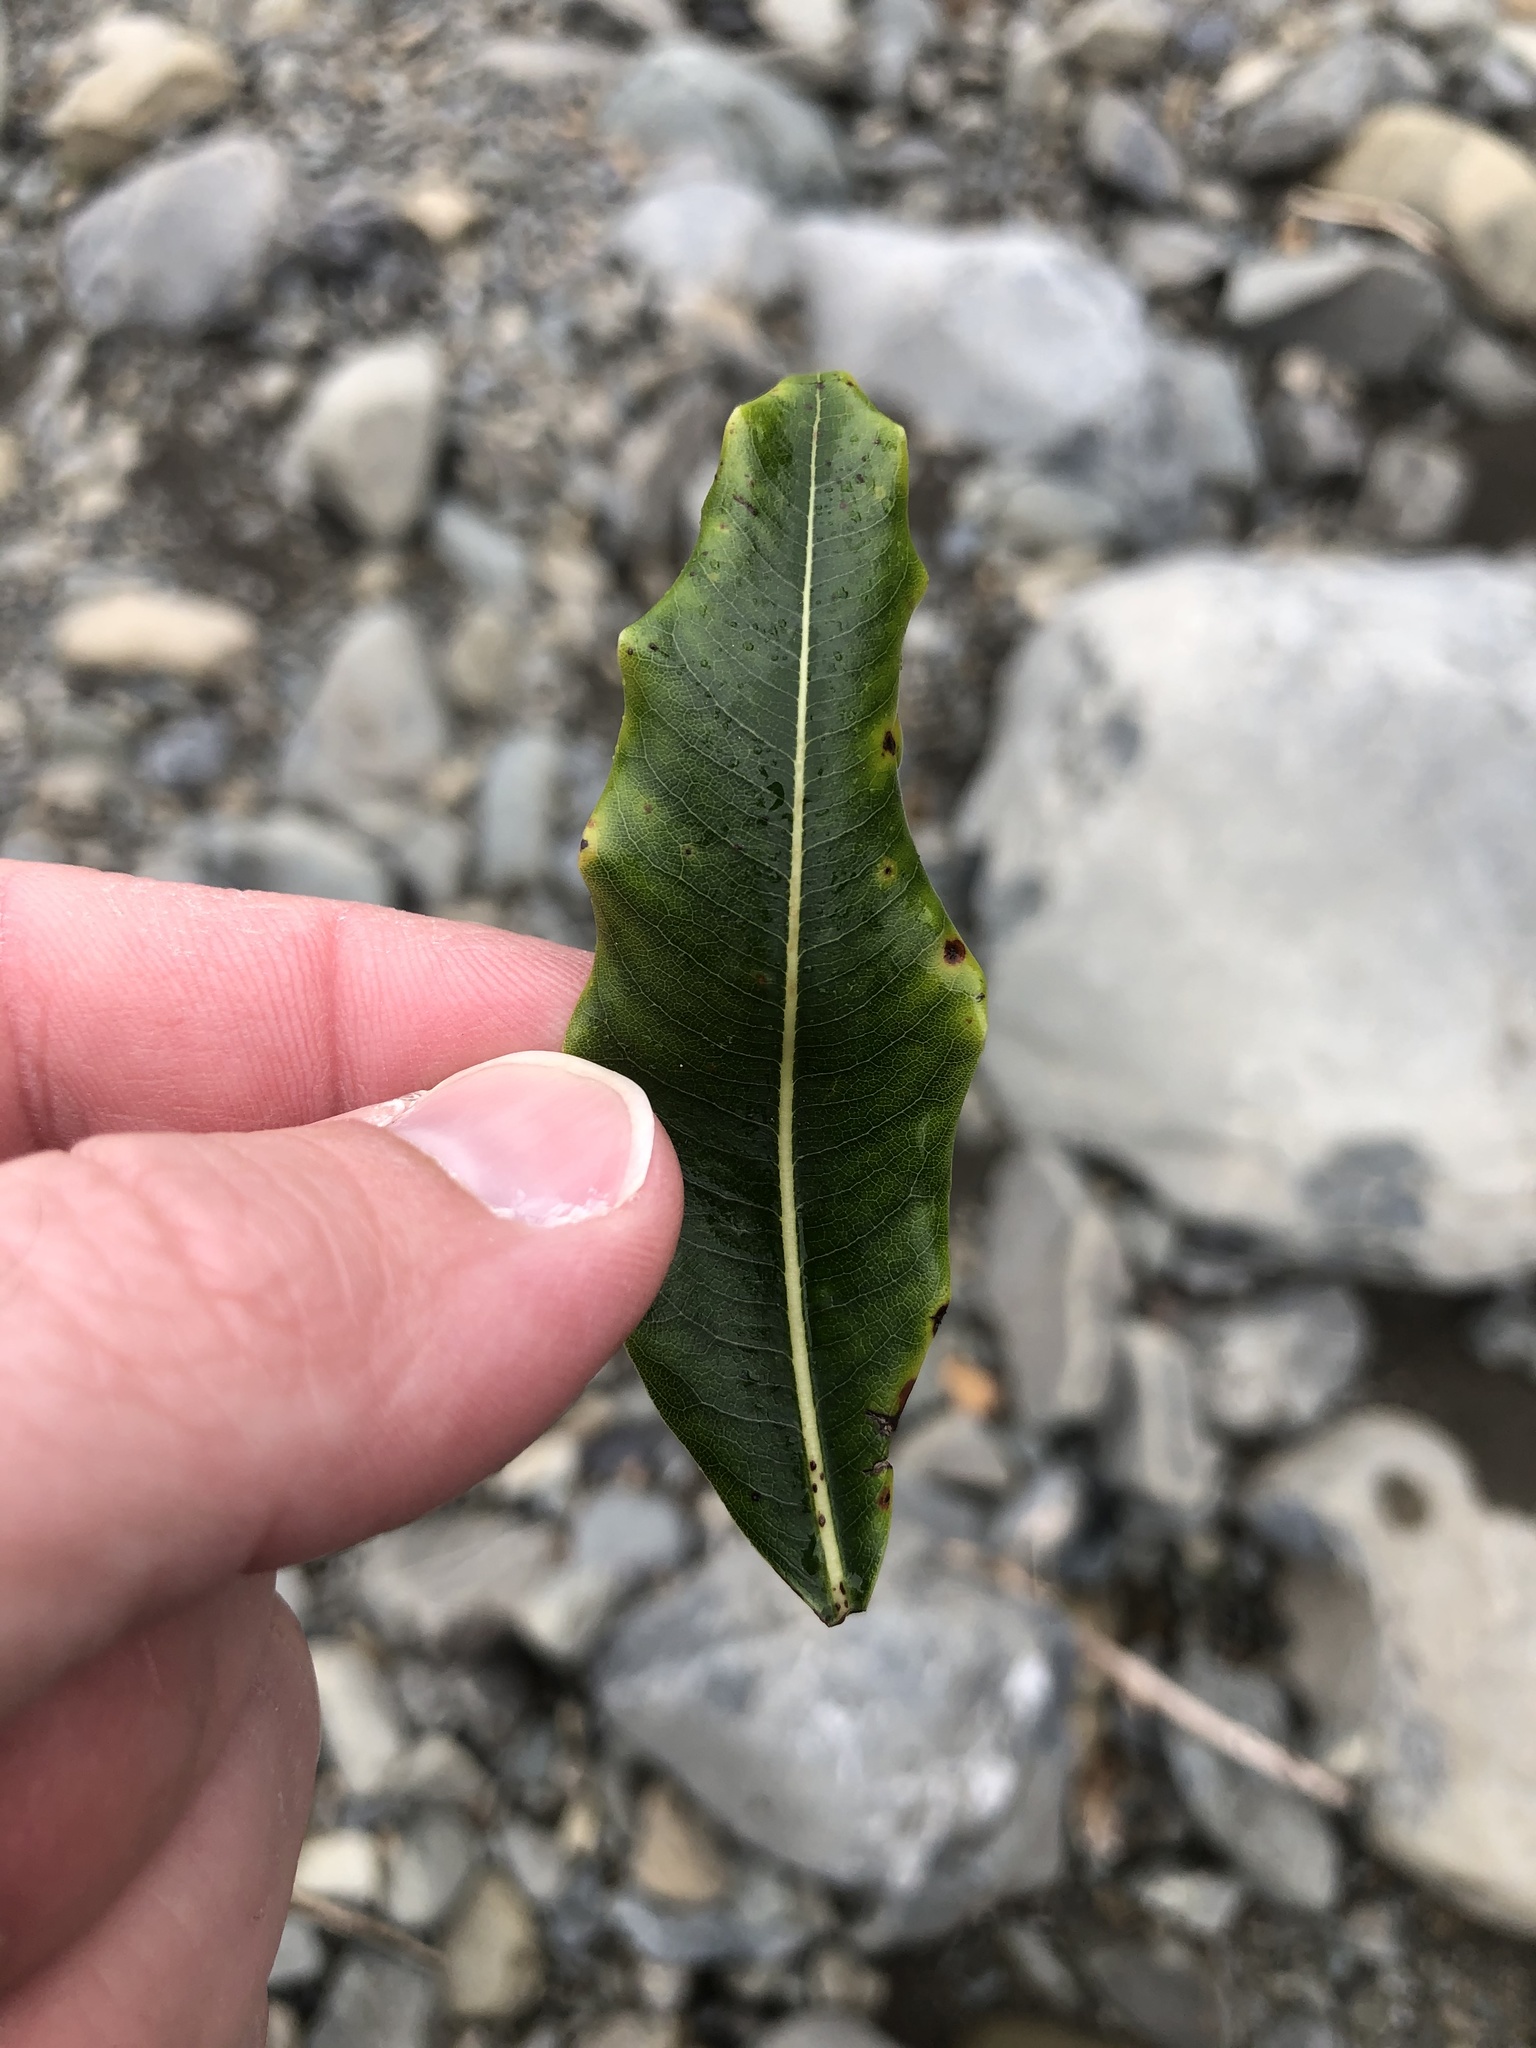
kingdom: Plantae
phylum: Tracheophyta
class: Magnoliopsida
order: Apiales
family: Pittosporaceae
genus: Pittosporum
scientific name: Pittosporum eugenioides
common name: Lemonwood
